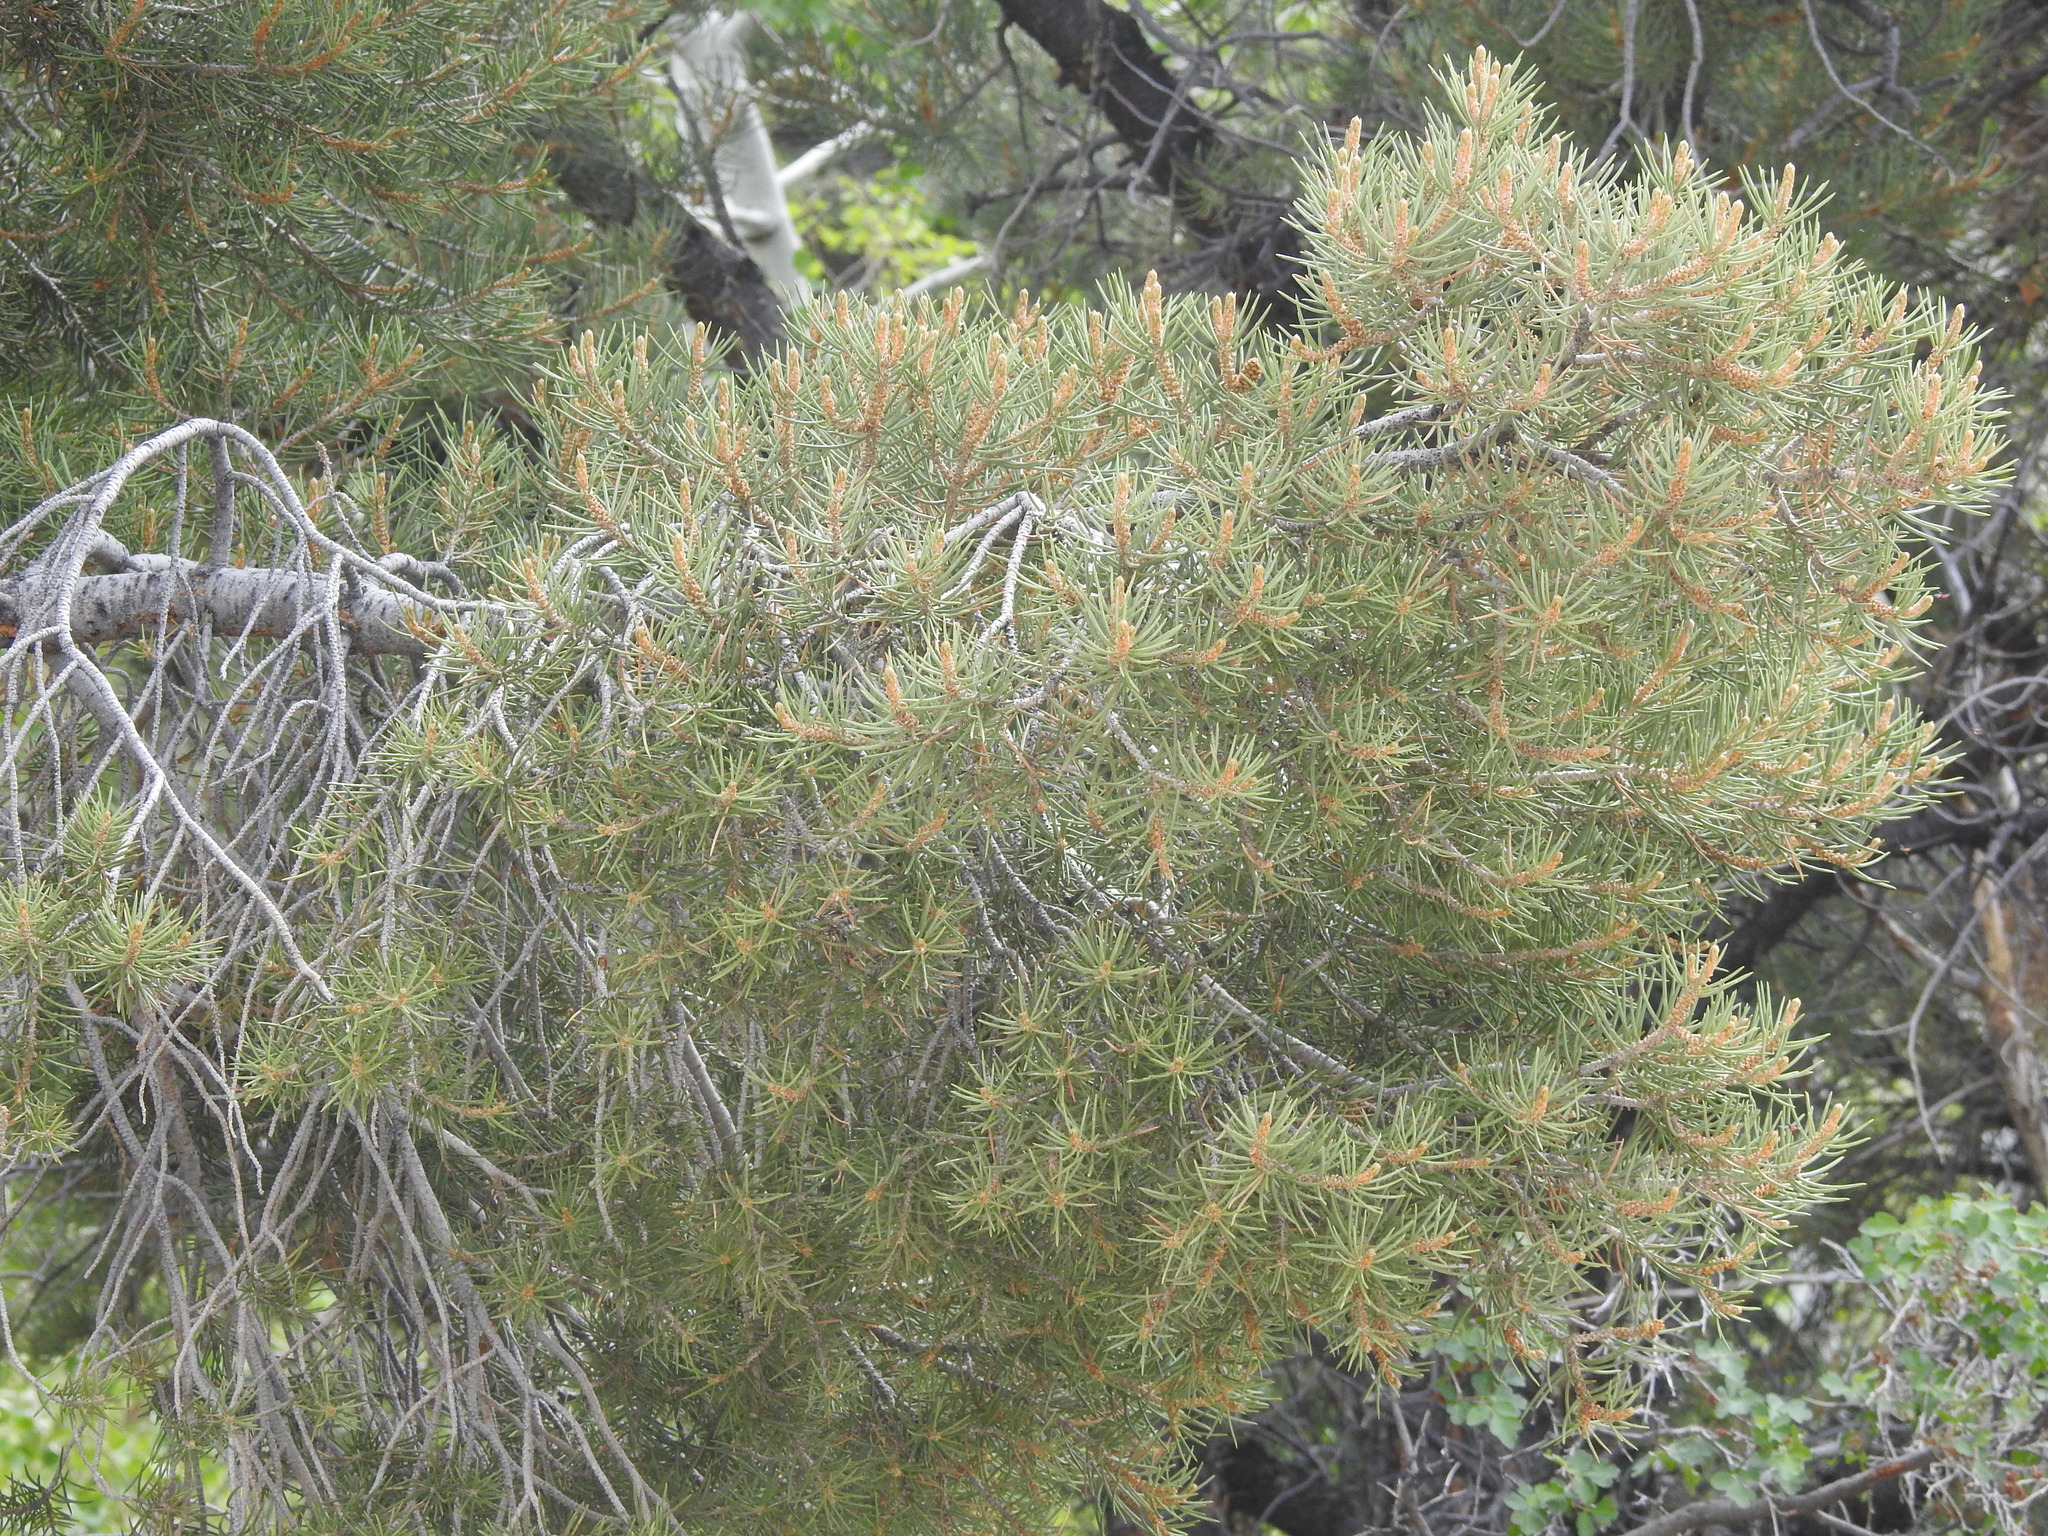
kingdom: Plantae
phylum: Tracheophyta
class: Pinopsida
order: Pinales
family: Pinaceae
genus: Pinus
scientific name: Pinus monophylla
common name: One-leaved nut pine
